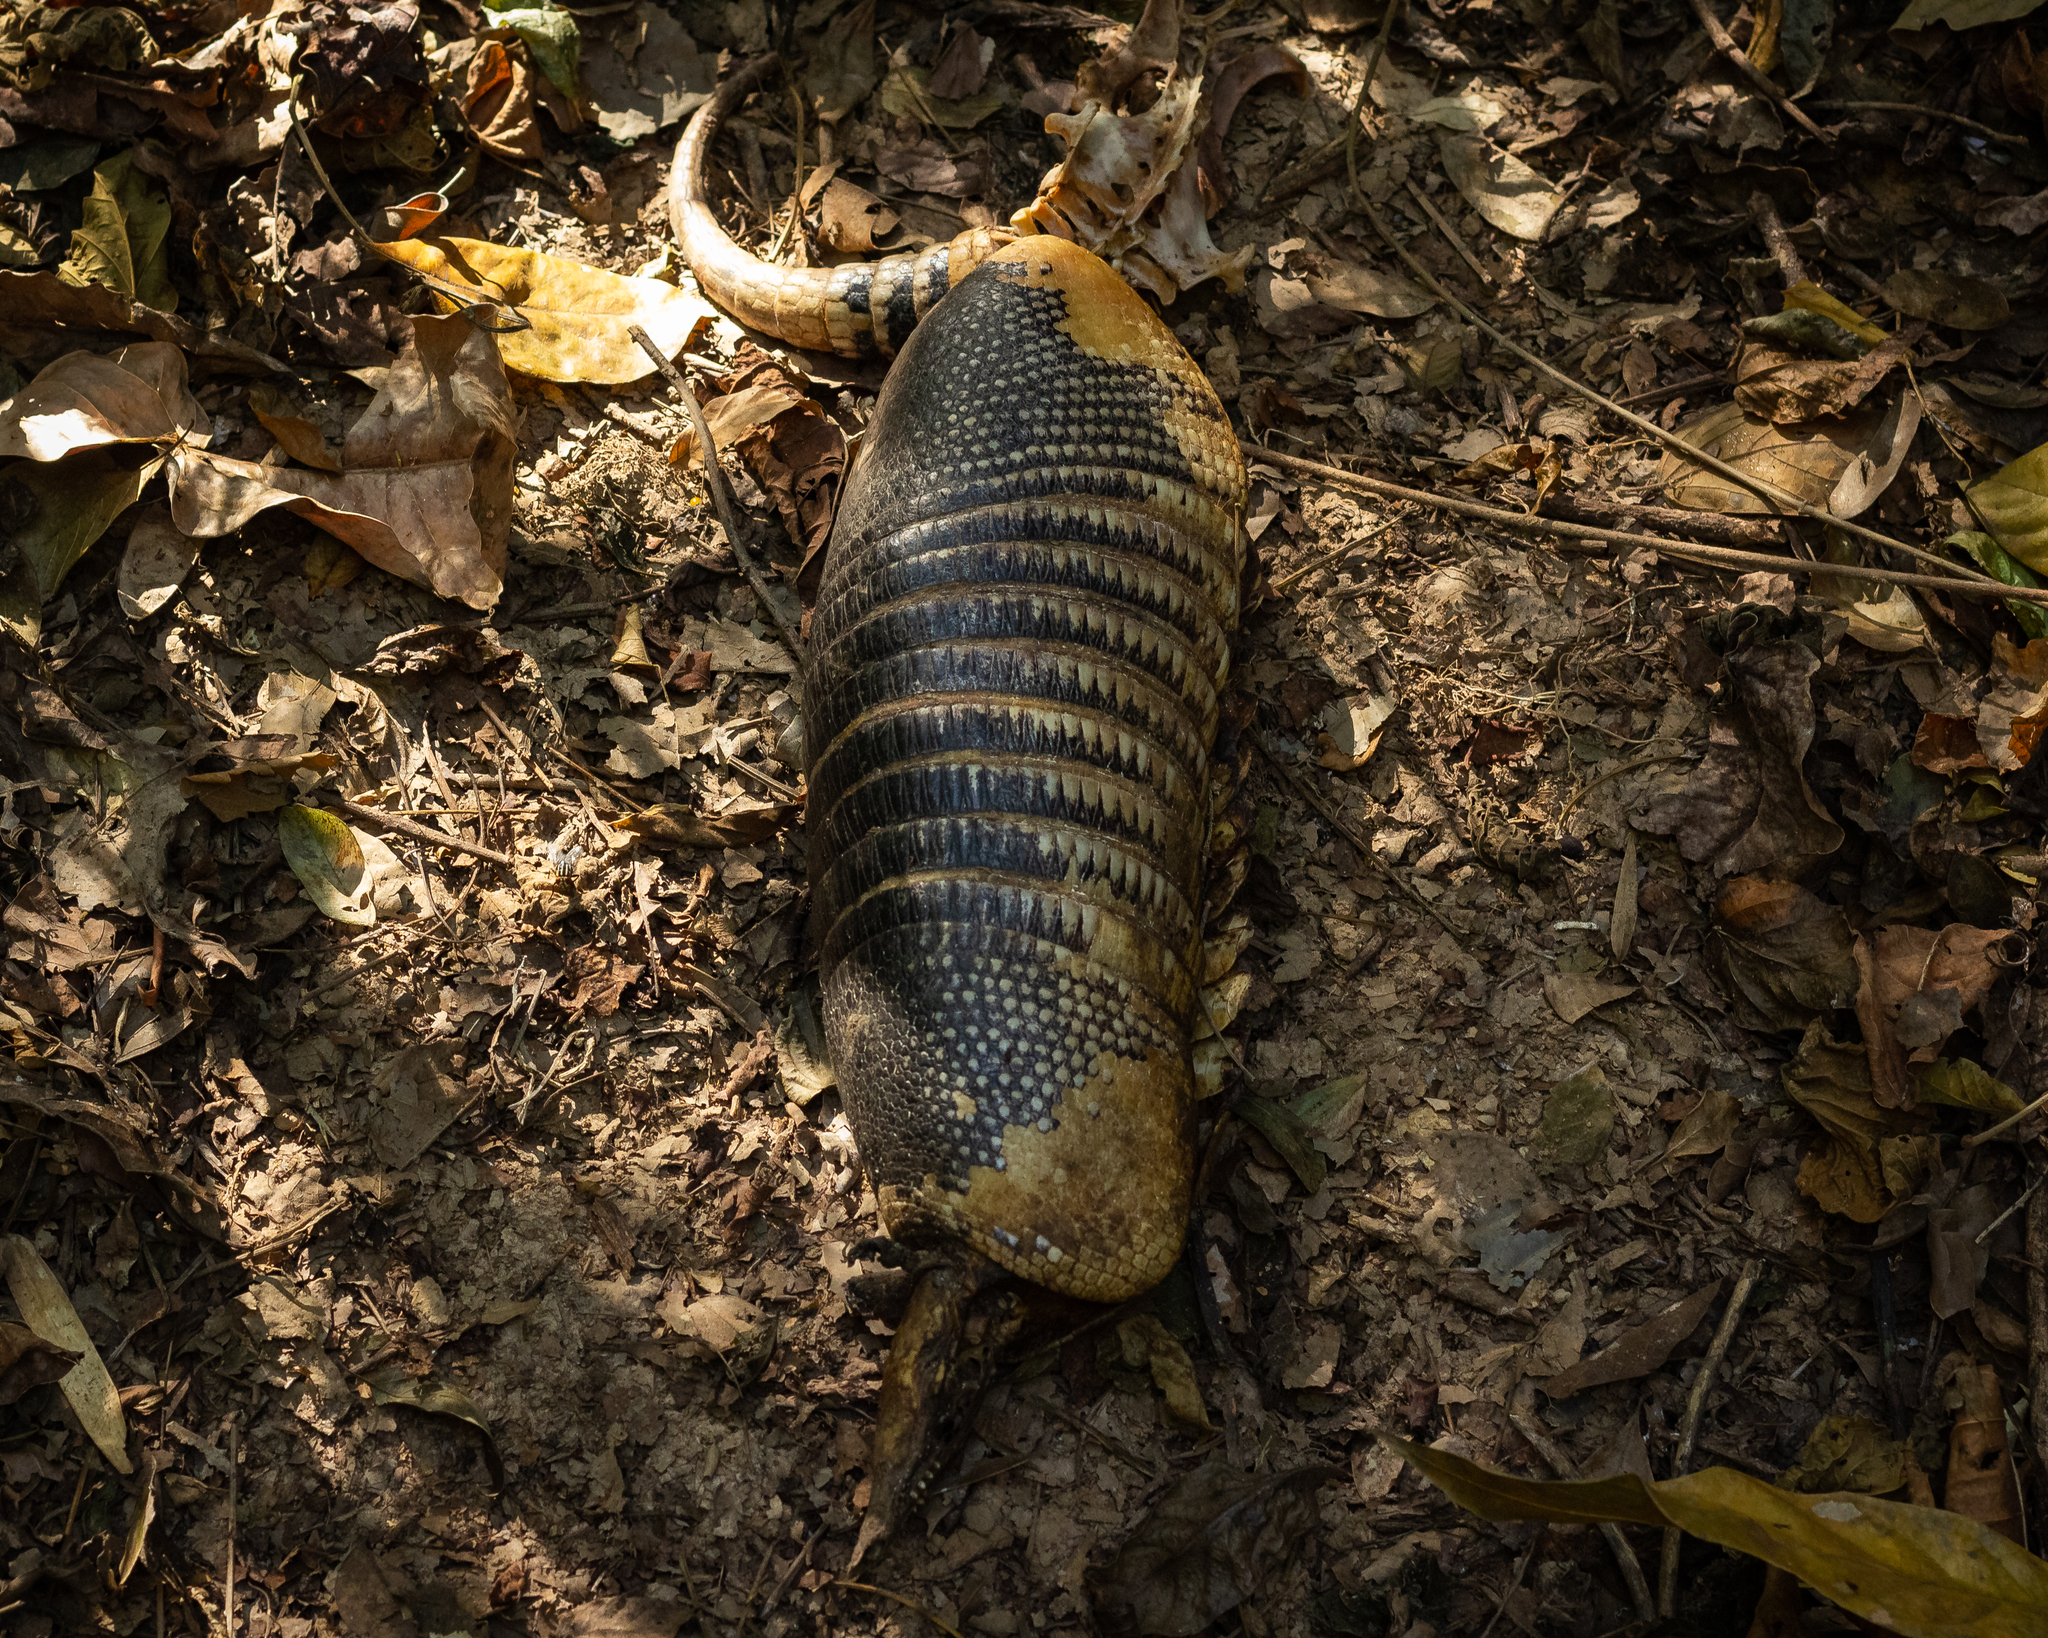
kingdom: Animalia
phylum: Chordata
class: Mammalia
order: Cingulata
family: Dasypodidae
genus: Dasypus
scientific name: Dasypus novemcinctus
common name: Nine-banded armadillo
